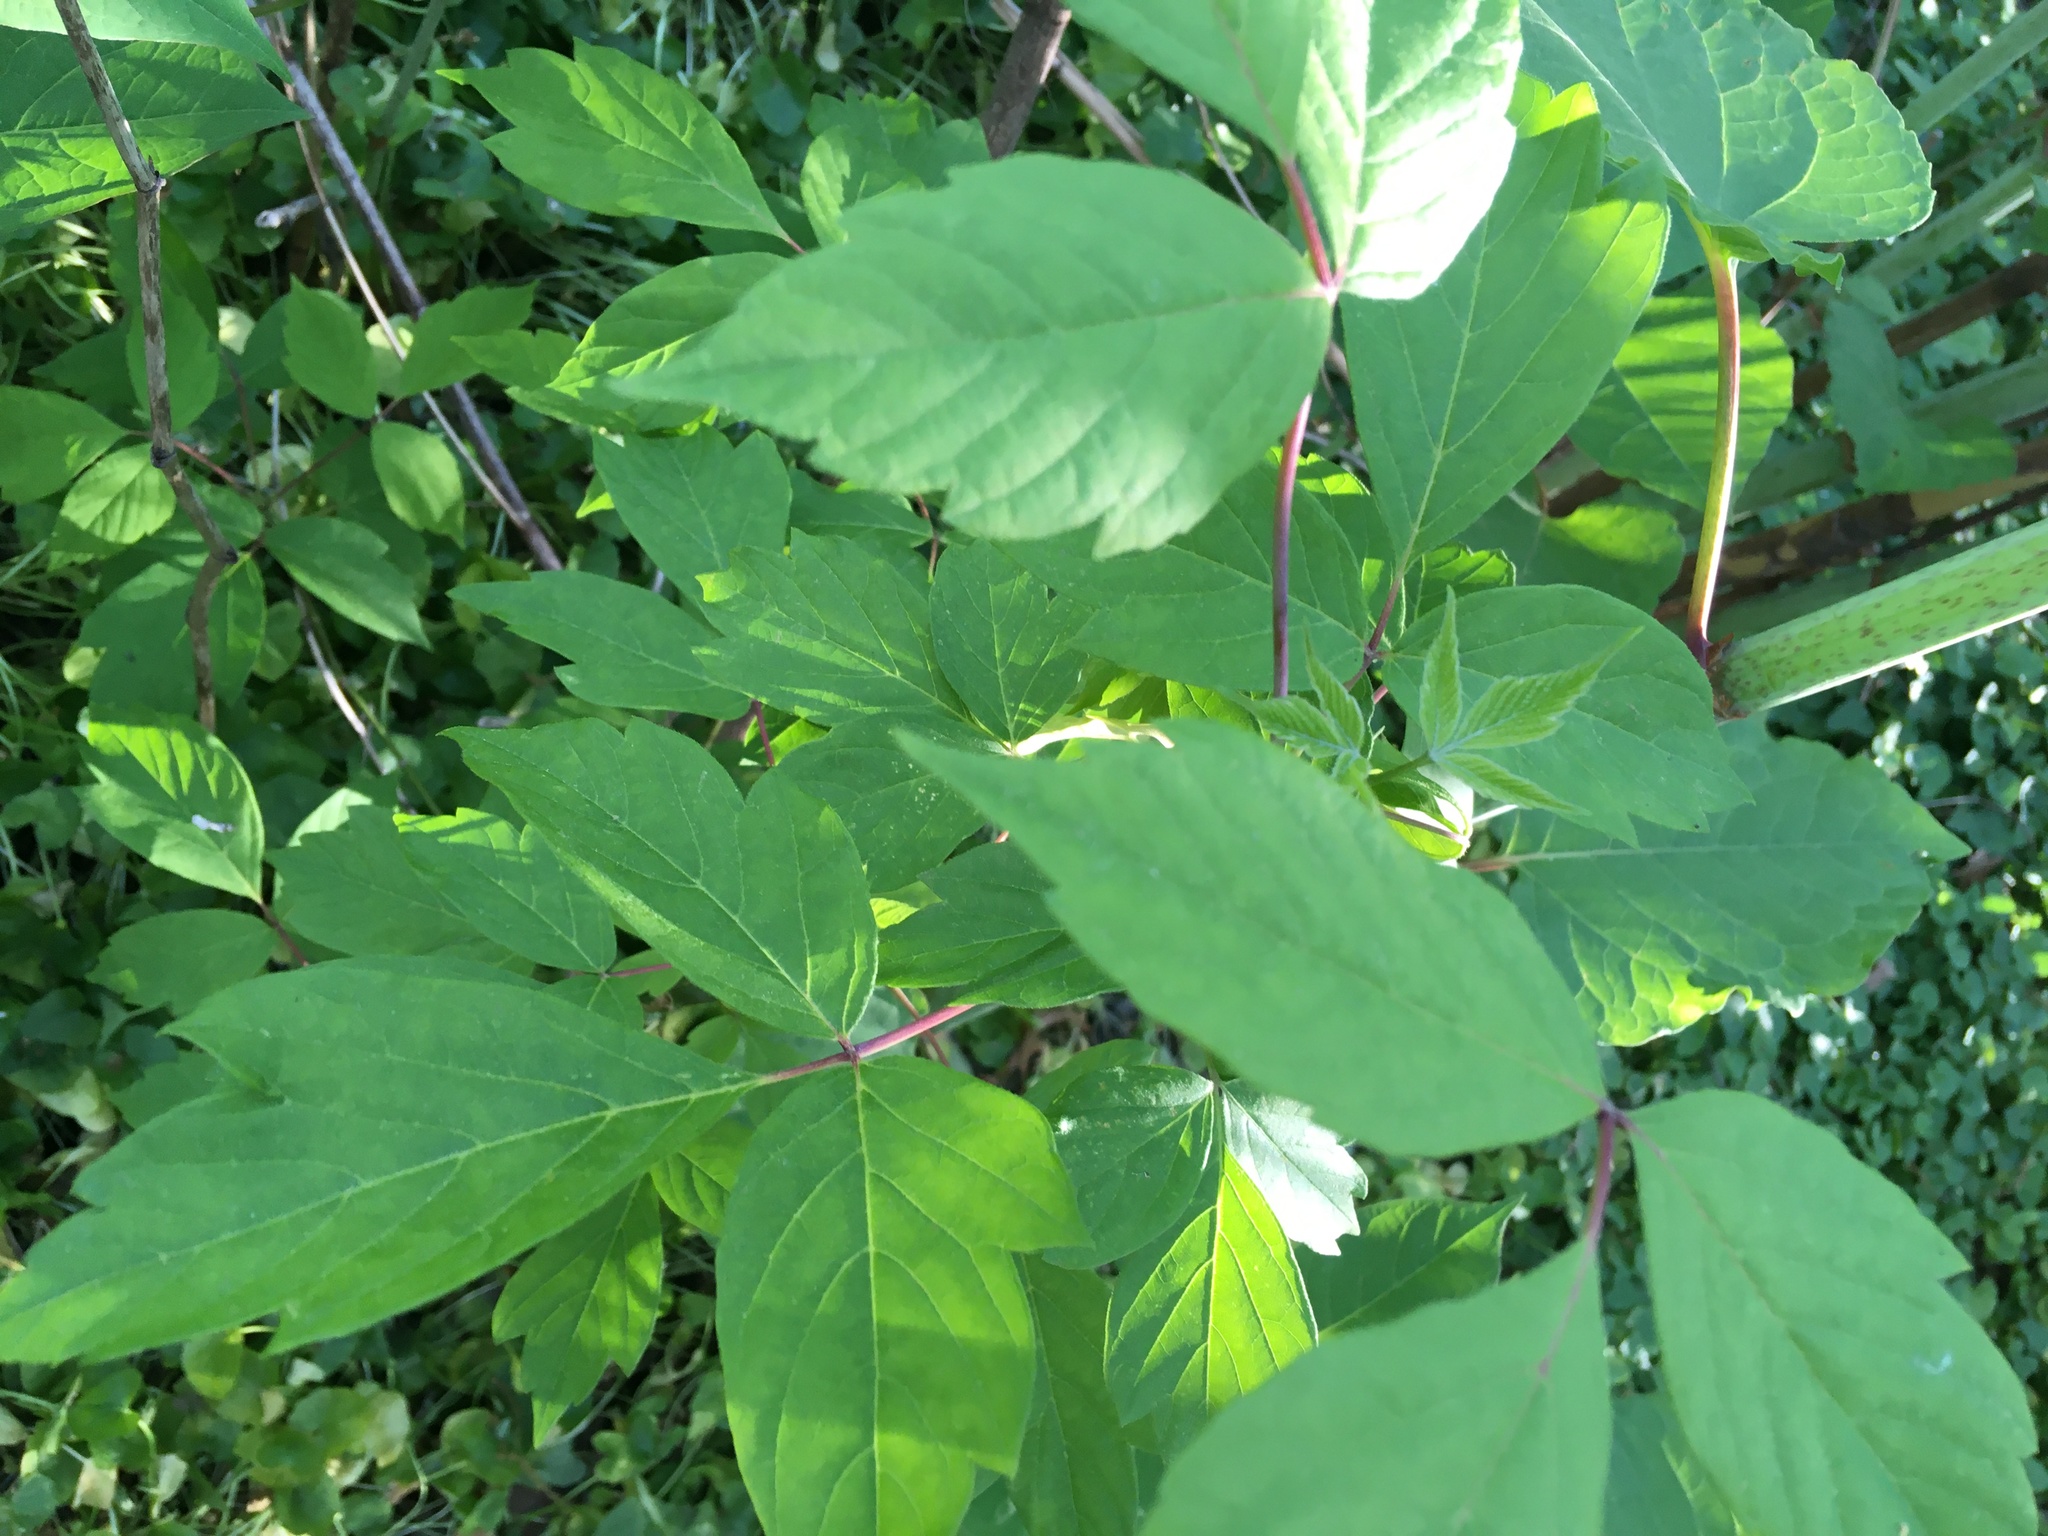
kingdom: Plantae
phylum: Tracheophyta
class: Magnoliopsida
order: Sapindales
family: Sapindaceae
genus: Acer
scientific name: Acer negundo
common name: Ashleaf maple
